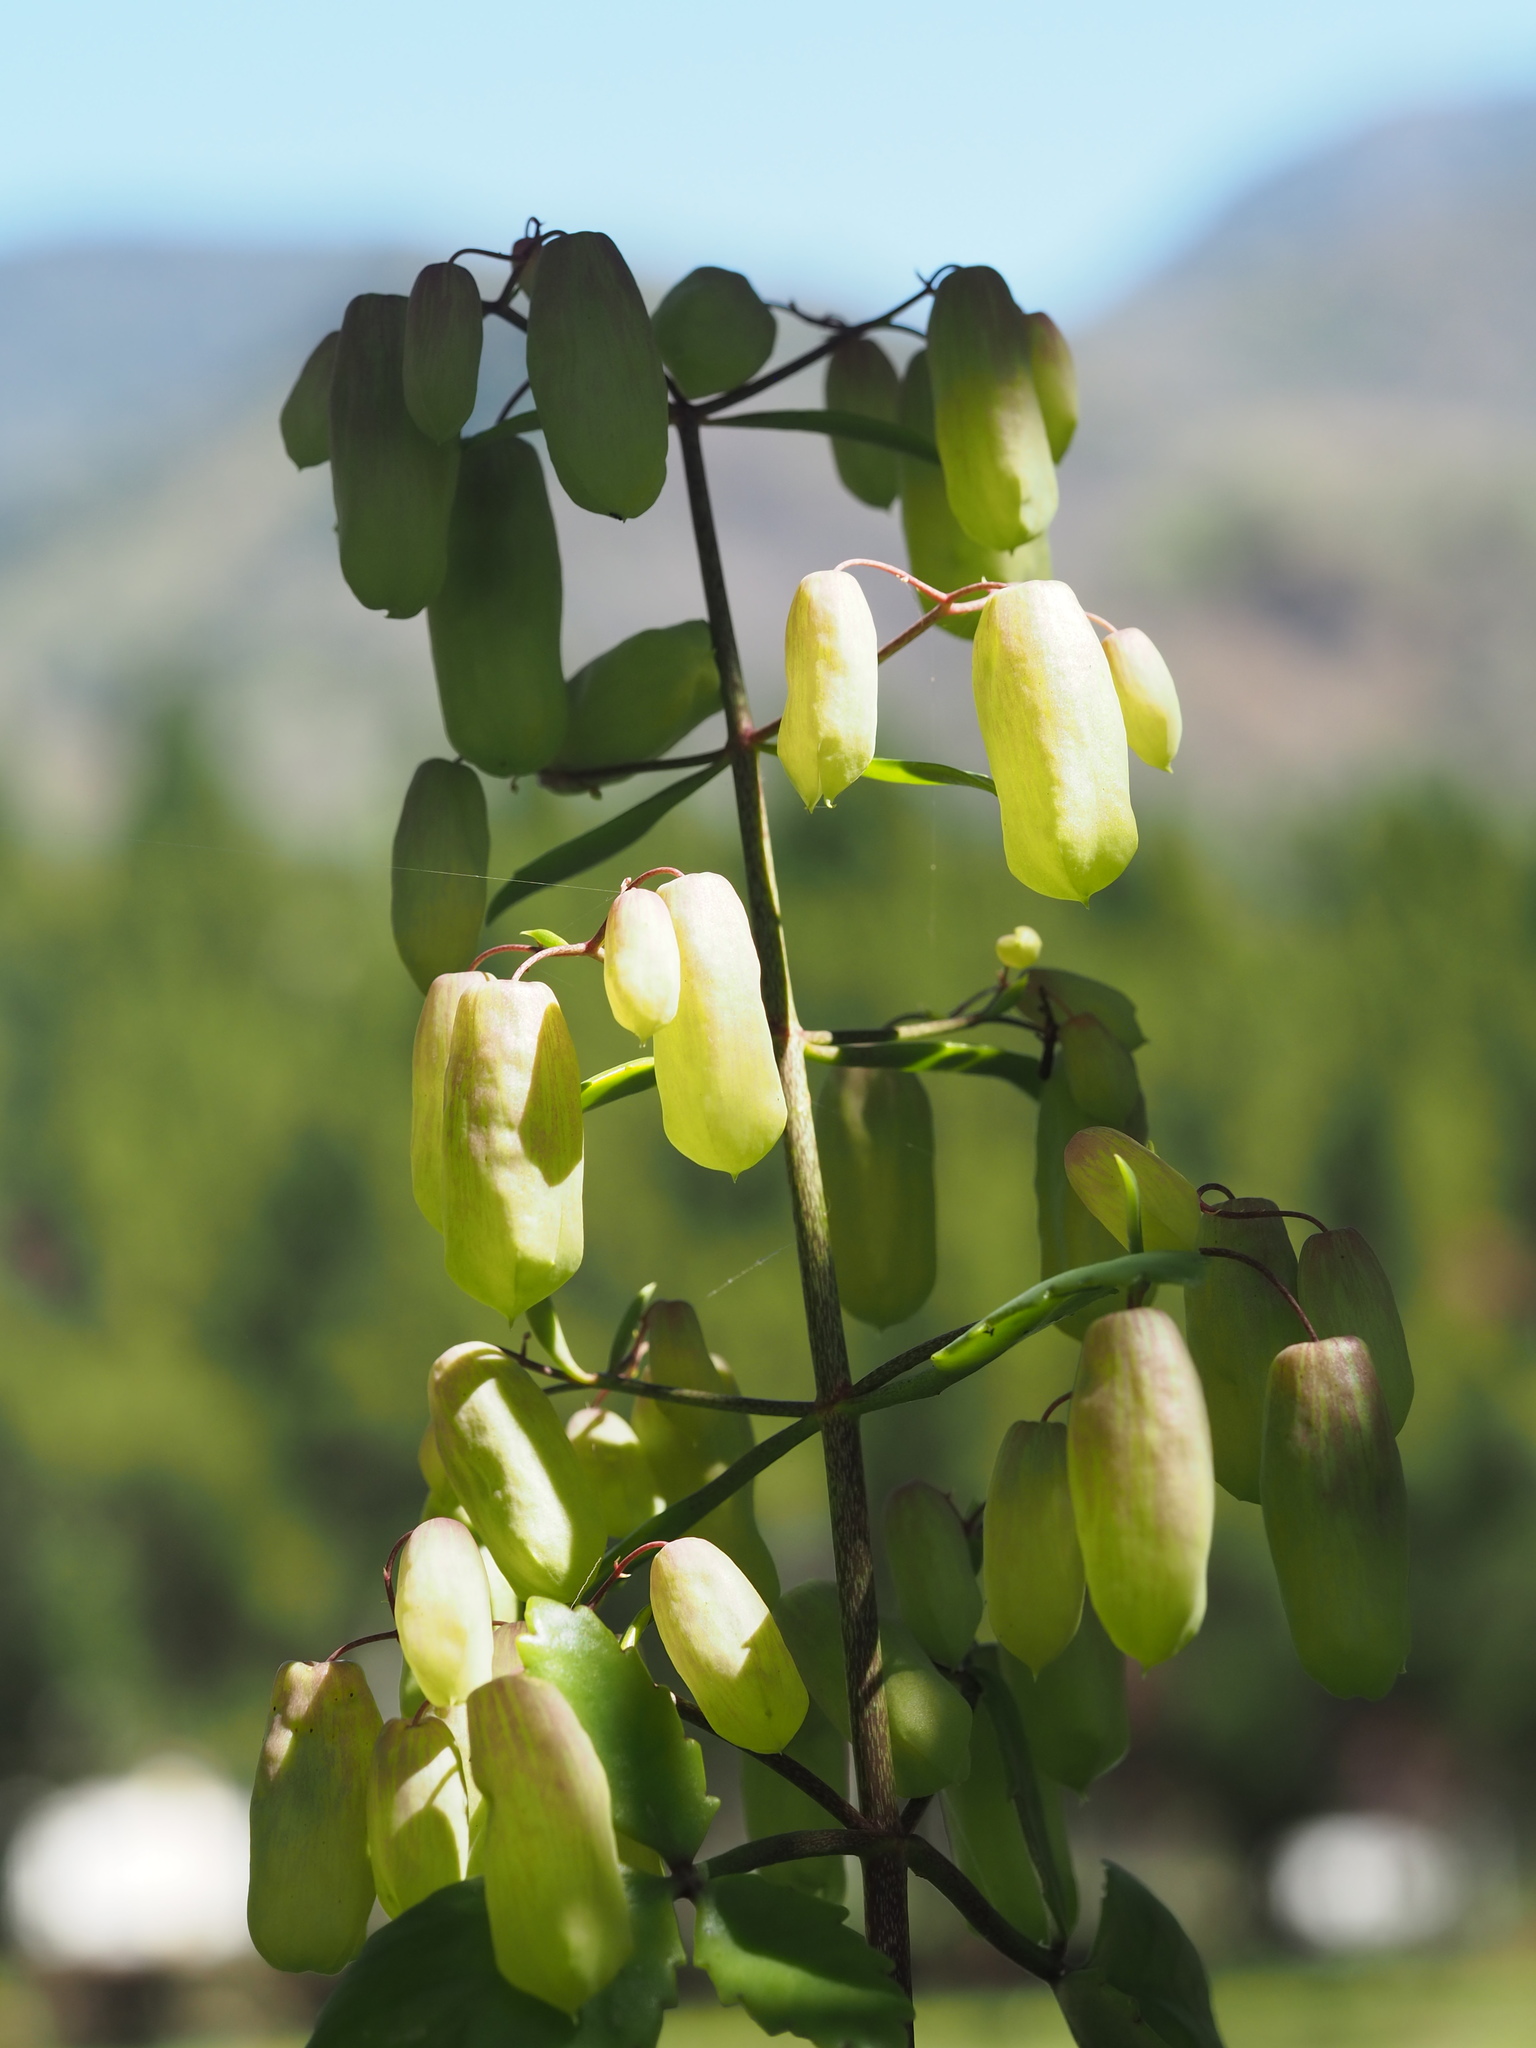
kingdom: Plantae
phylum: Tracheophyta
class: Magnoliopsida
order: Saxifragales
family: Crassulaceae
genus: Kalanchoe
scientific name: Kalanchoe pinnata
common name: Cathedral bells
